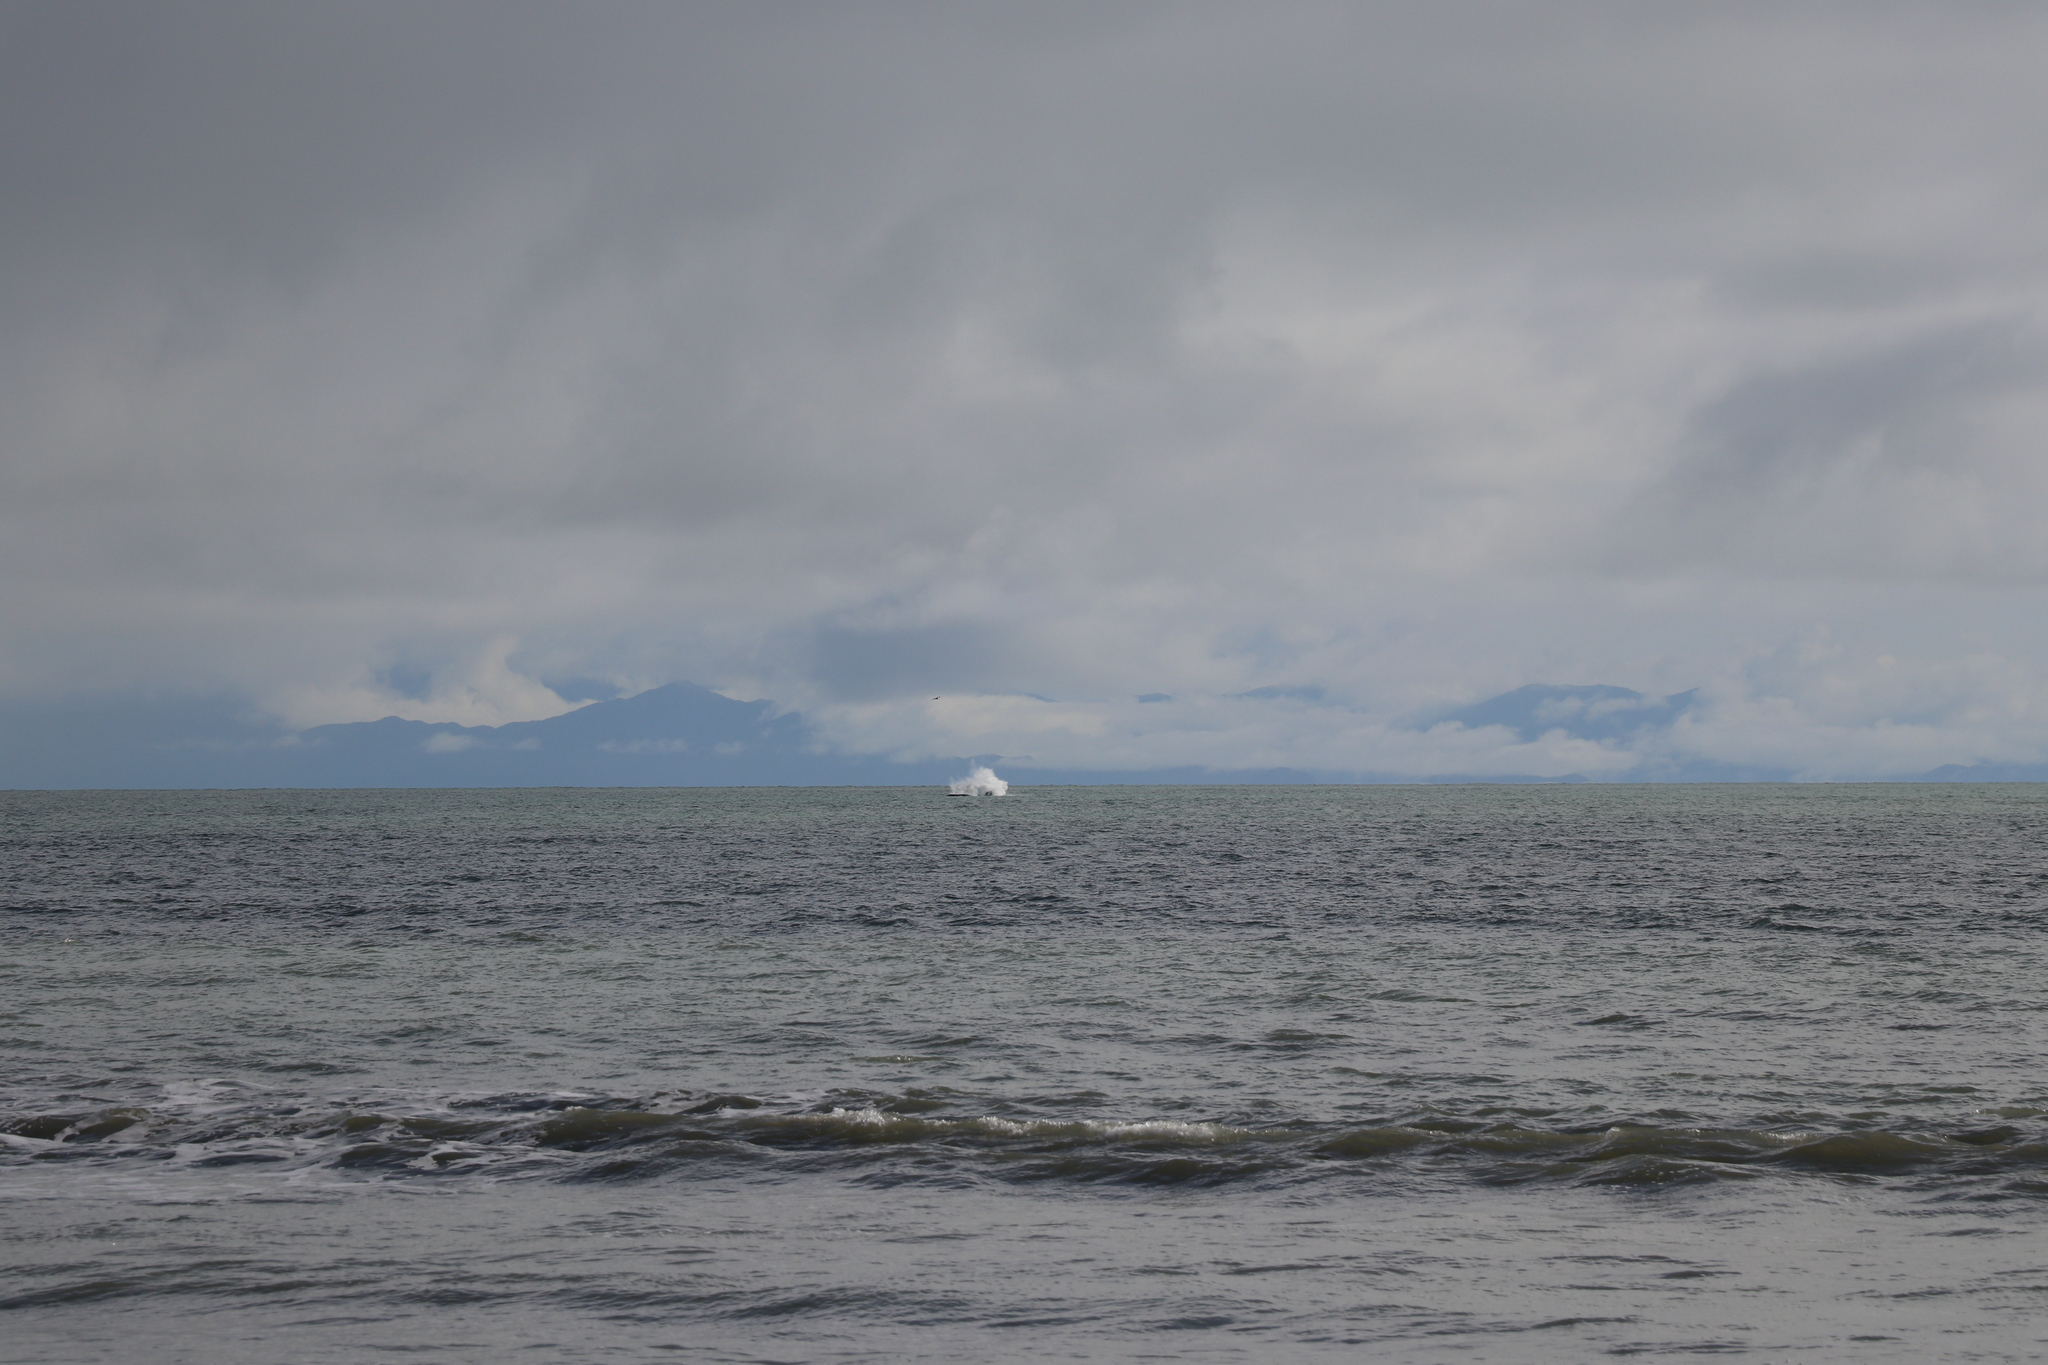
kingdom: Animalia
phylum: Chordata
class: Mammalia
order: Cetacea
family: Balaenidae
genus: Eubalaena
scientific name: Eubalaena australis
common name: Southern right whale
